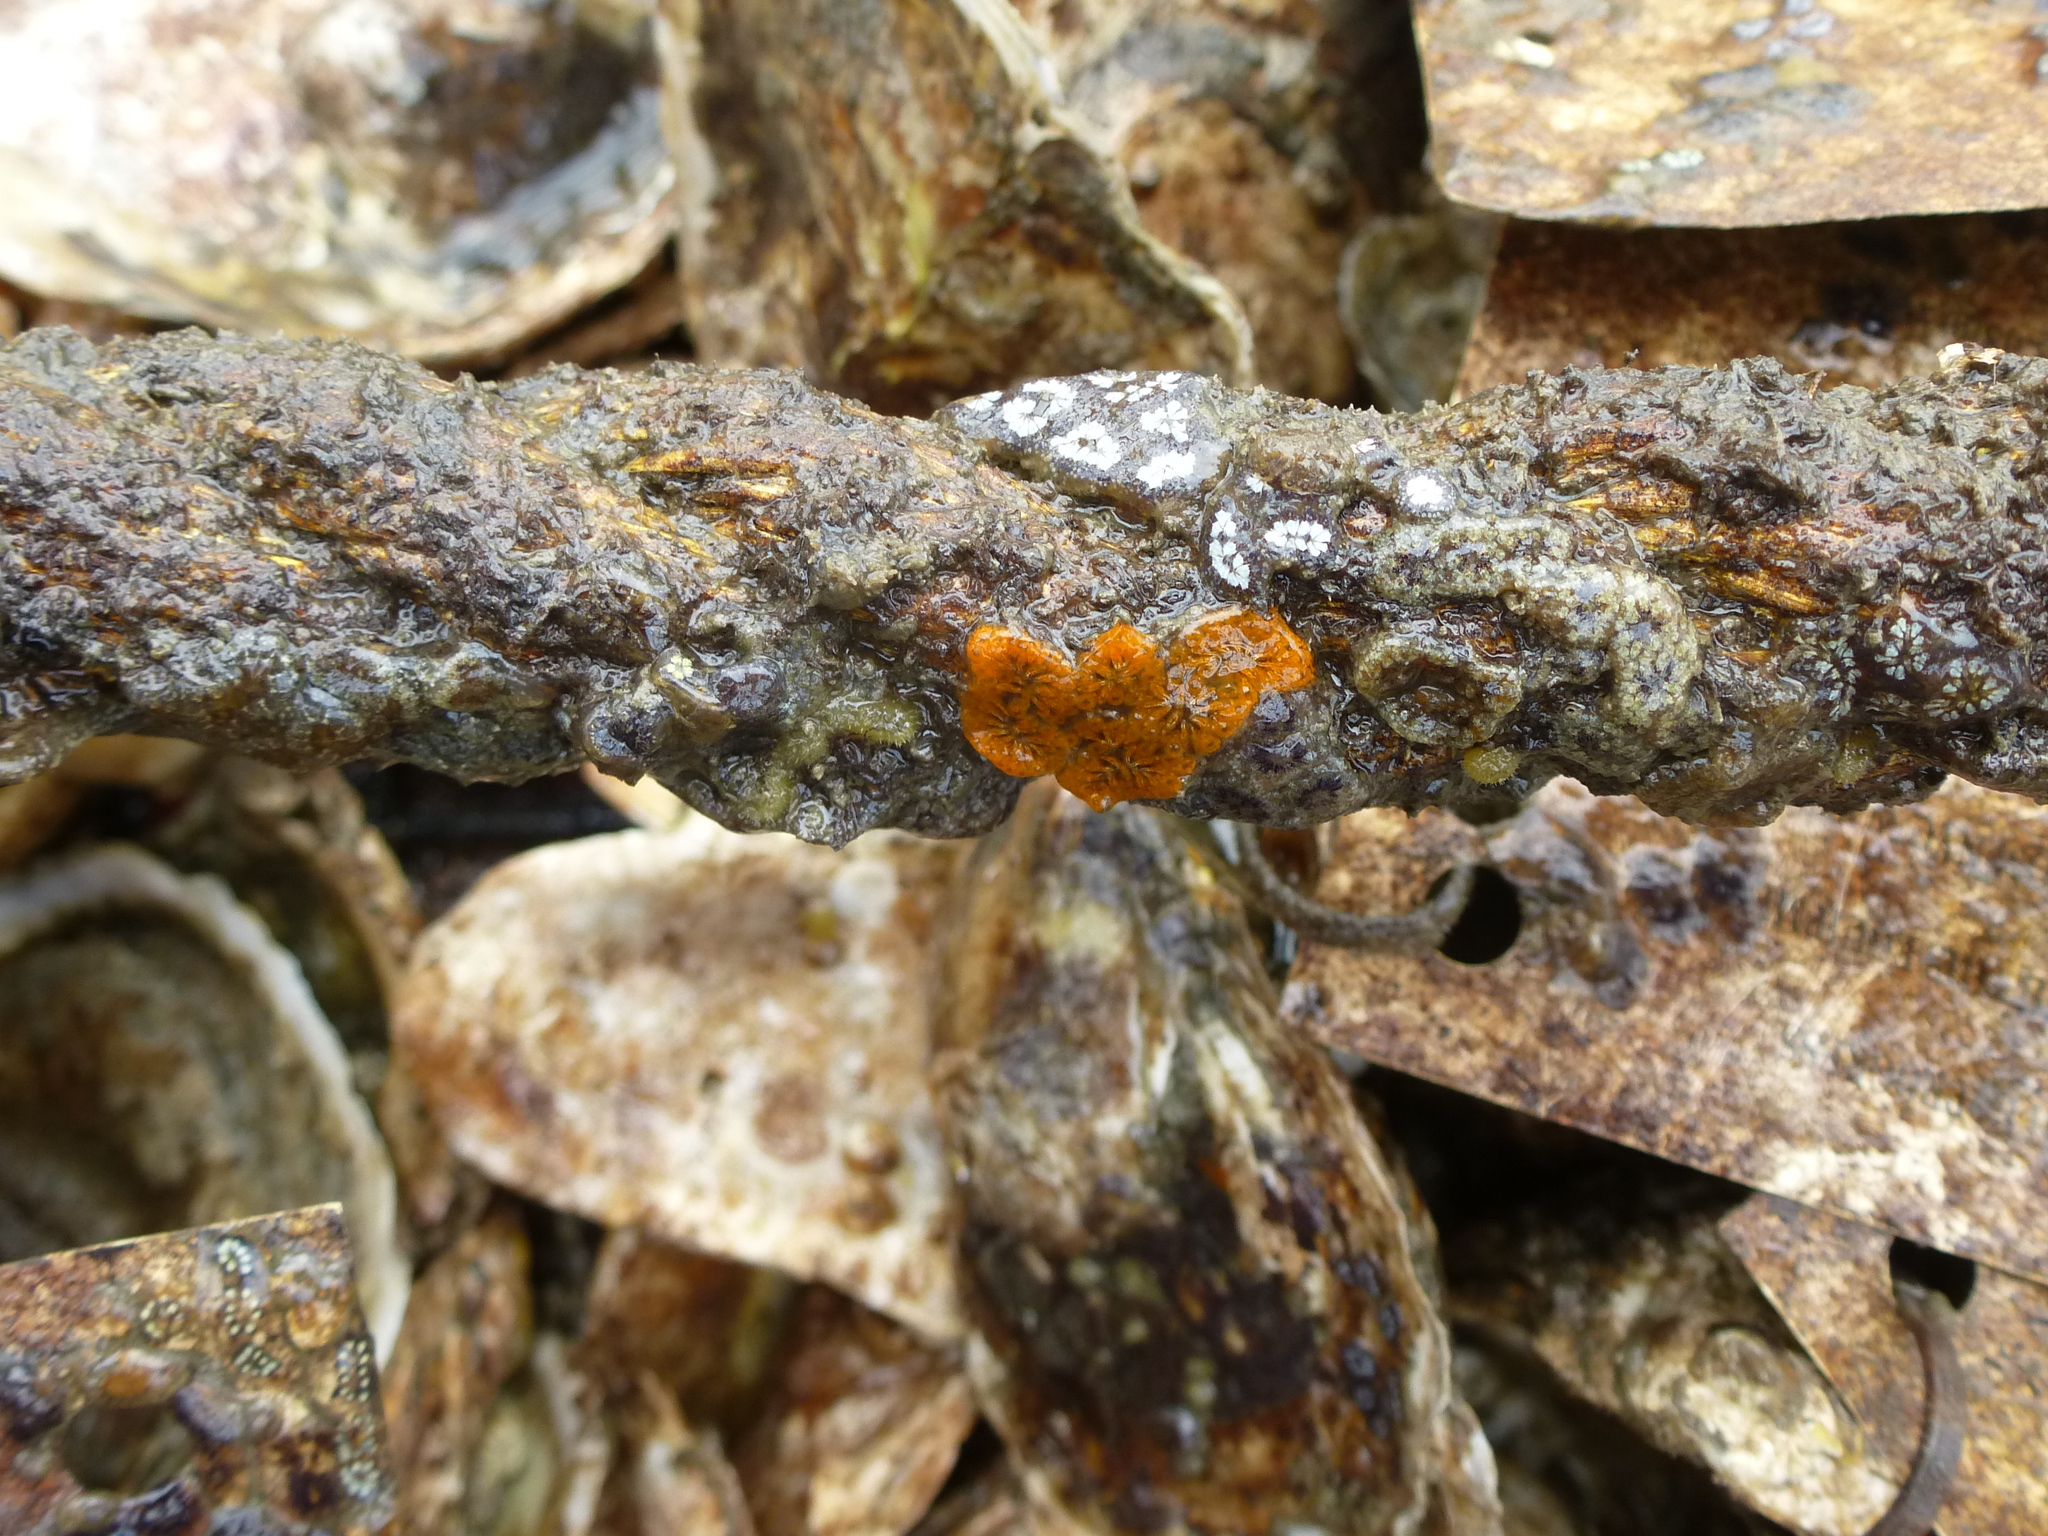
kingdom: Animalia
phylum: Chordata
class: Ascidiacea
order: Stolidobranchia
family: Styelidae
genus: Botryllus
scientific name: Botryllus schlosseri
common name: Golden star tunicate
